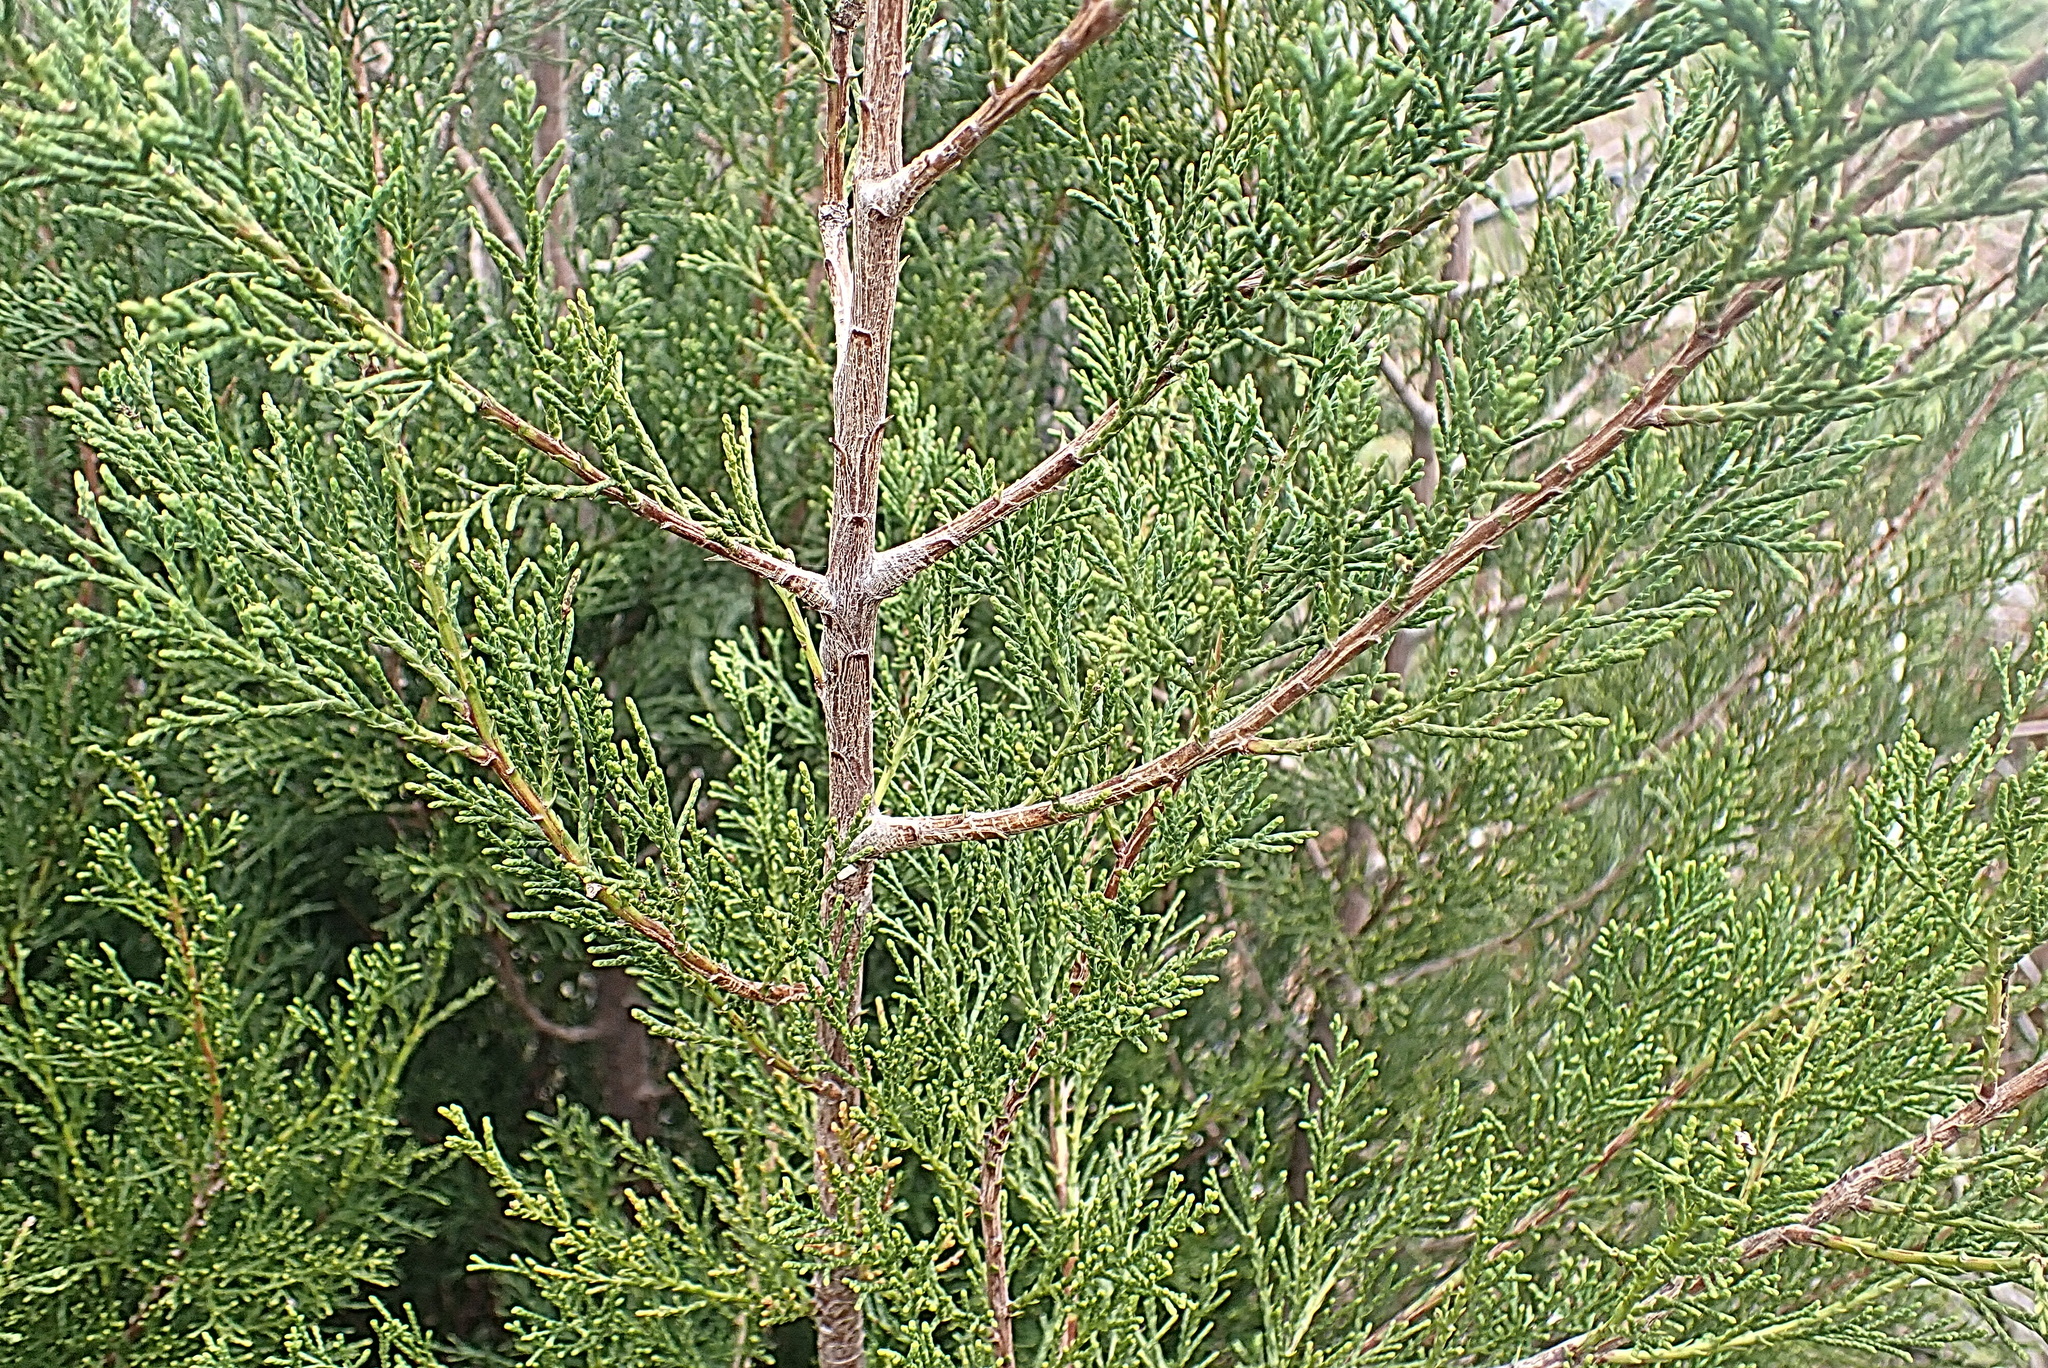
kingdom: Plantae
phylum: Tracheophyta
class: Pinopsida
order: Pinales
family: Cupressaceae
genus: Widdringtonia
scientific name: Widdringtonia nodiflora
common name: Cape cypress
